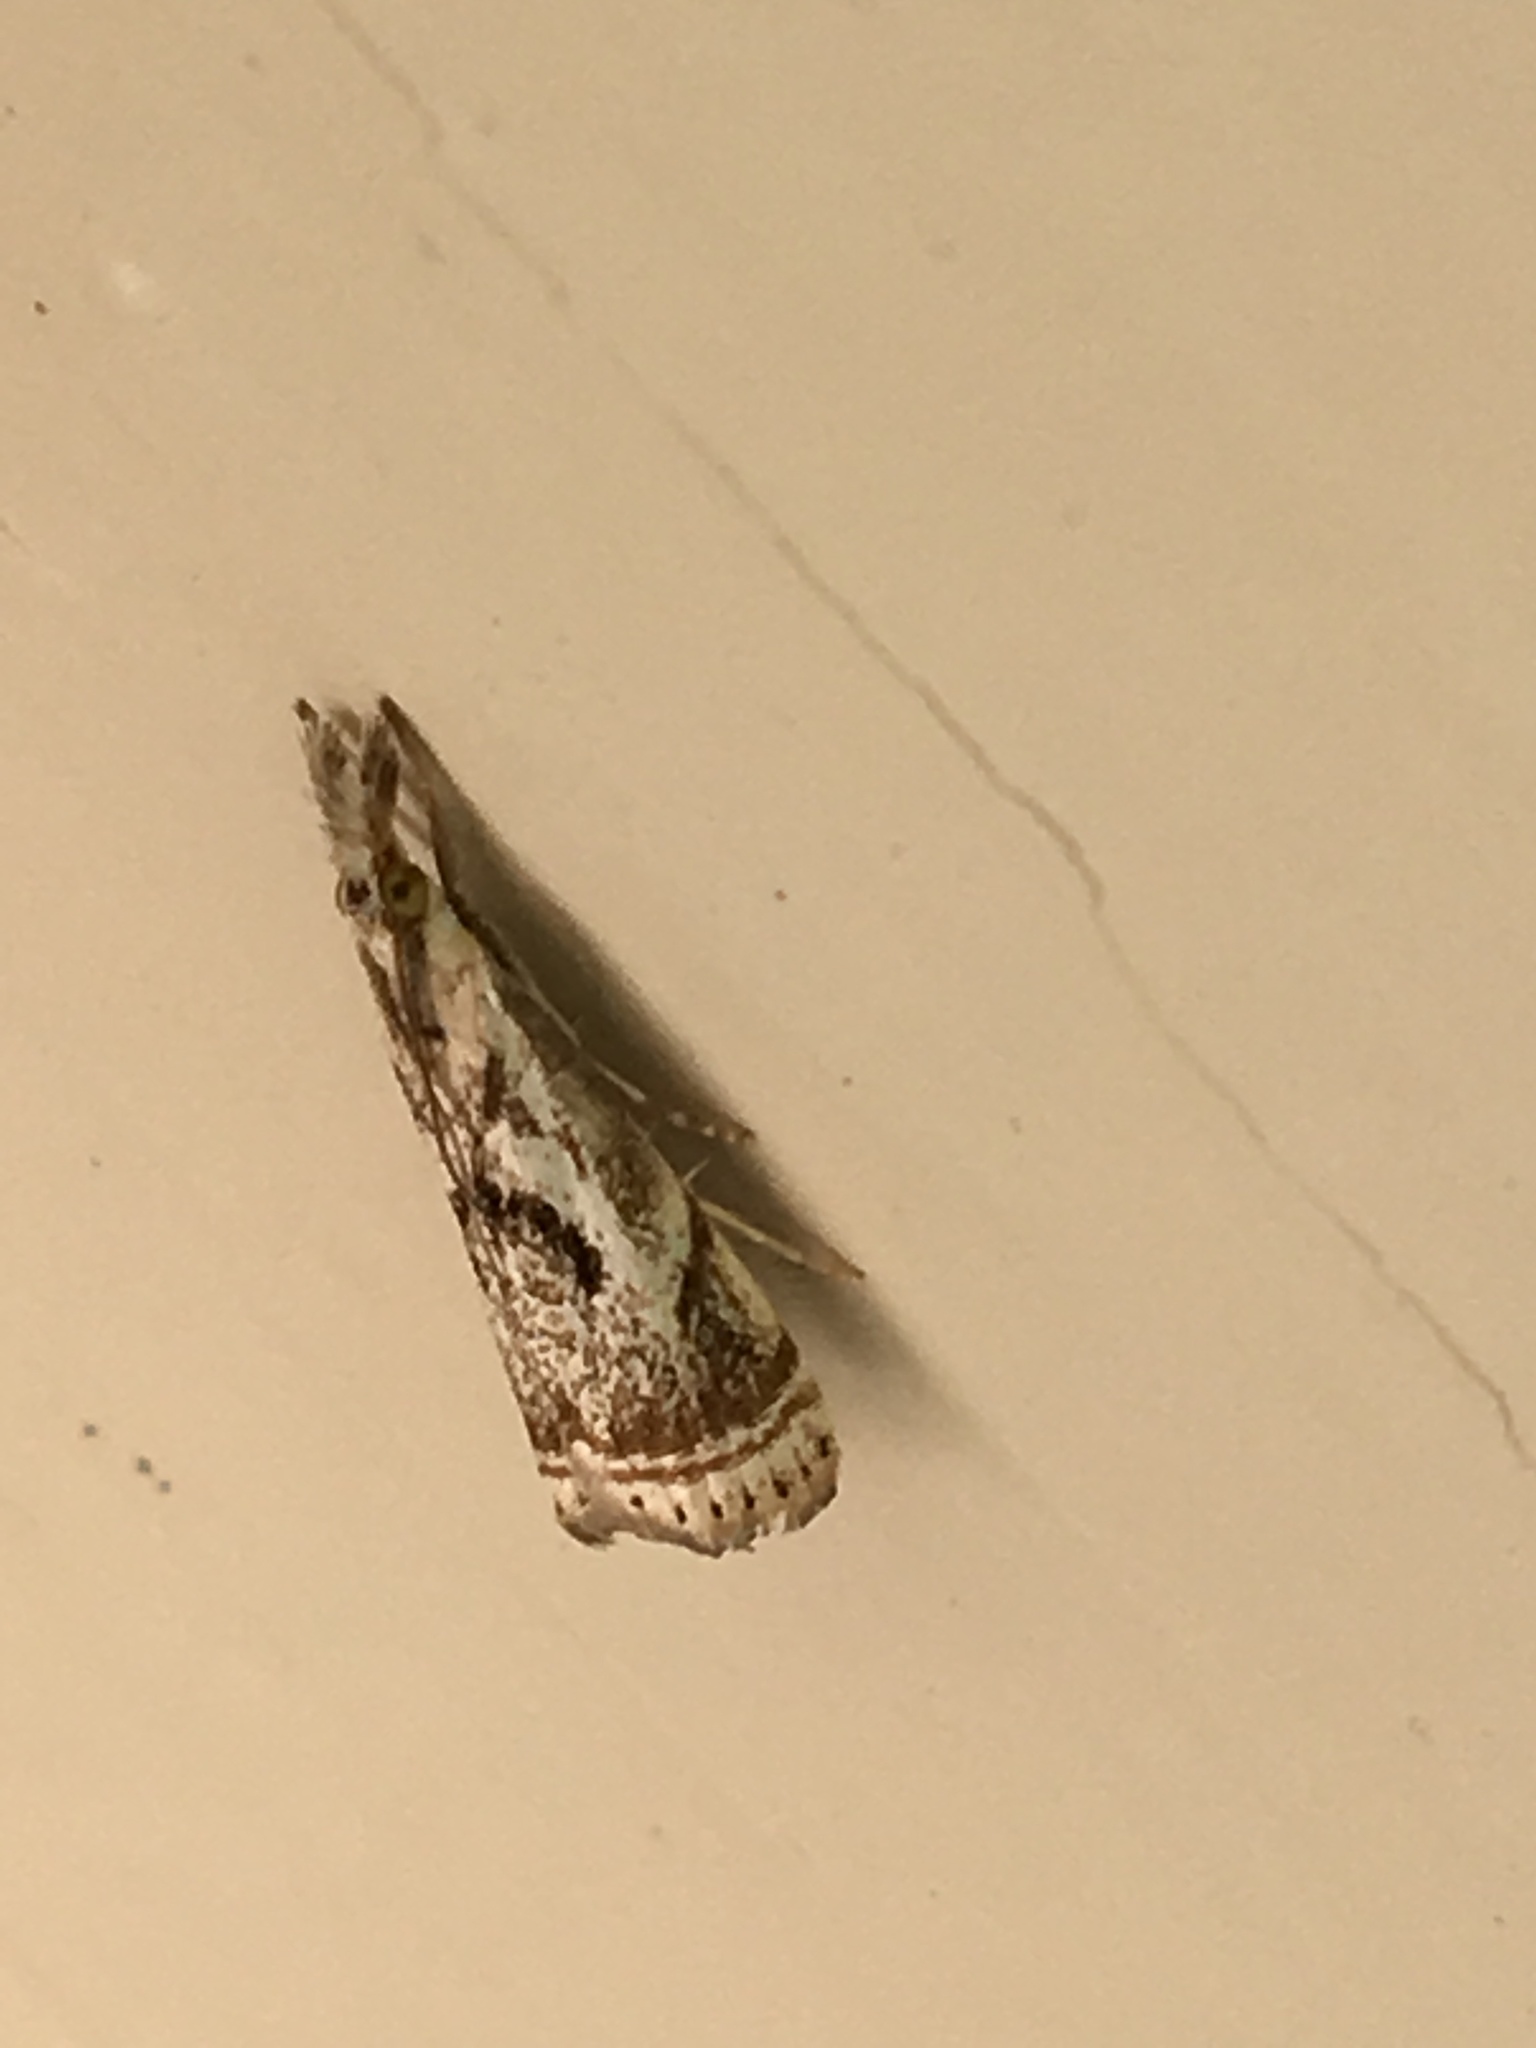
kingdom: Animalia
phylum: Arthropoda
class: Insecta
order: Lepidoptera
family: Crambidae
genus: Microcrambus
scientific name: Microcrambus elegans
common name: Elegant grass-veneer
